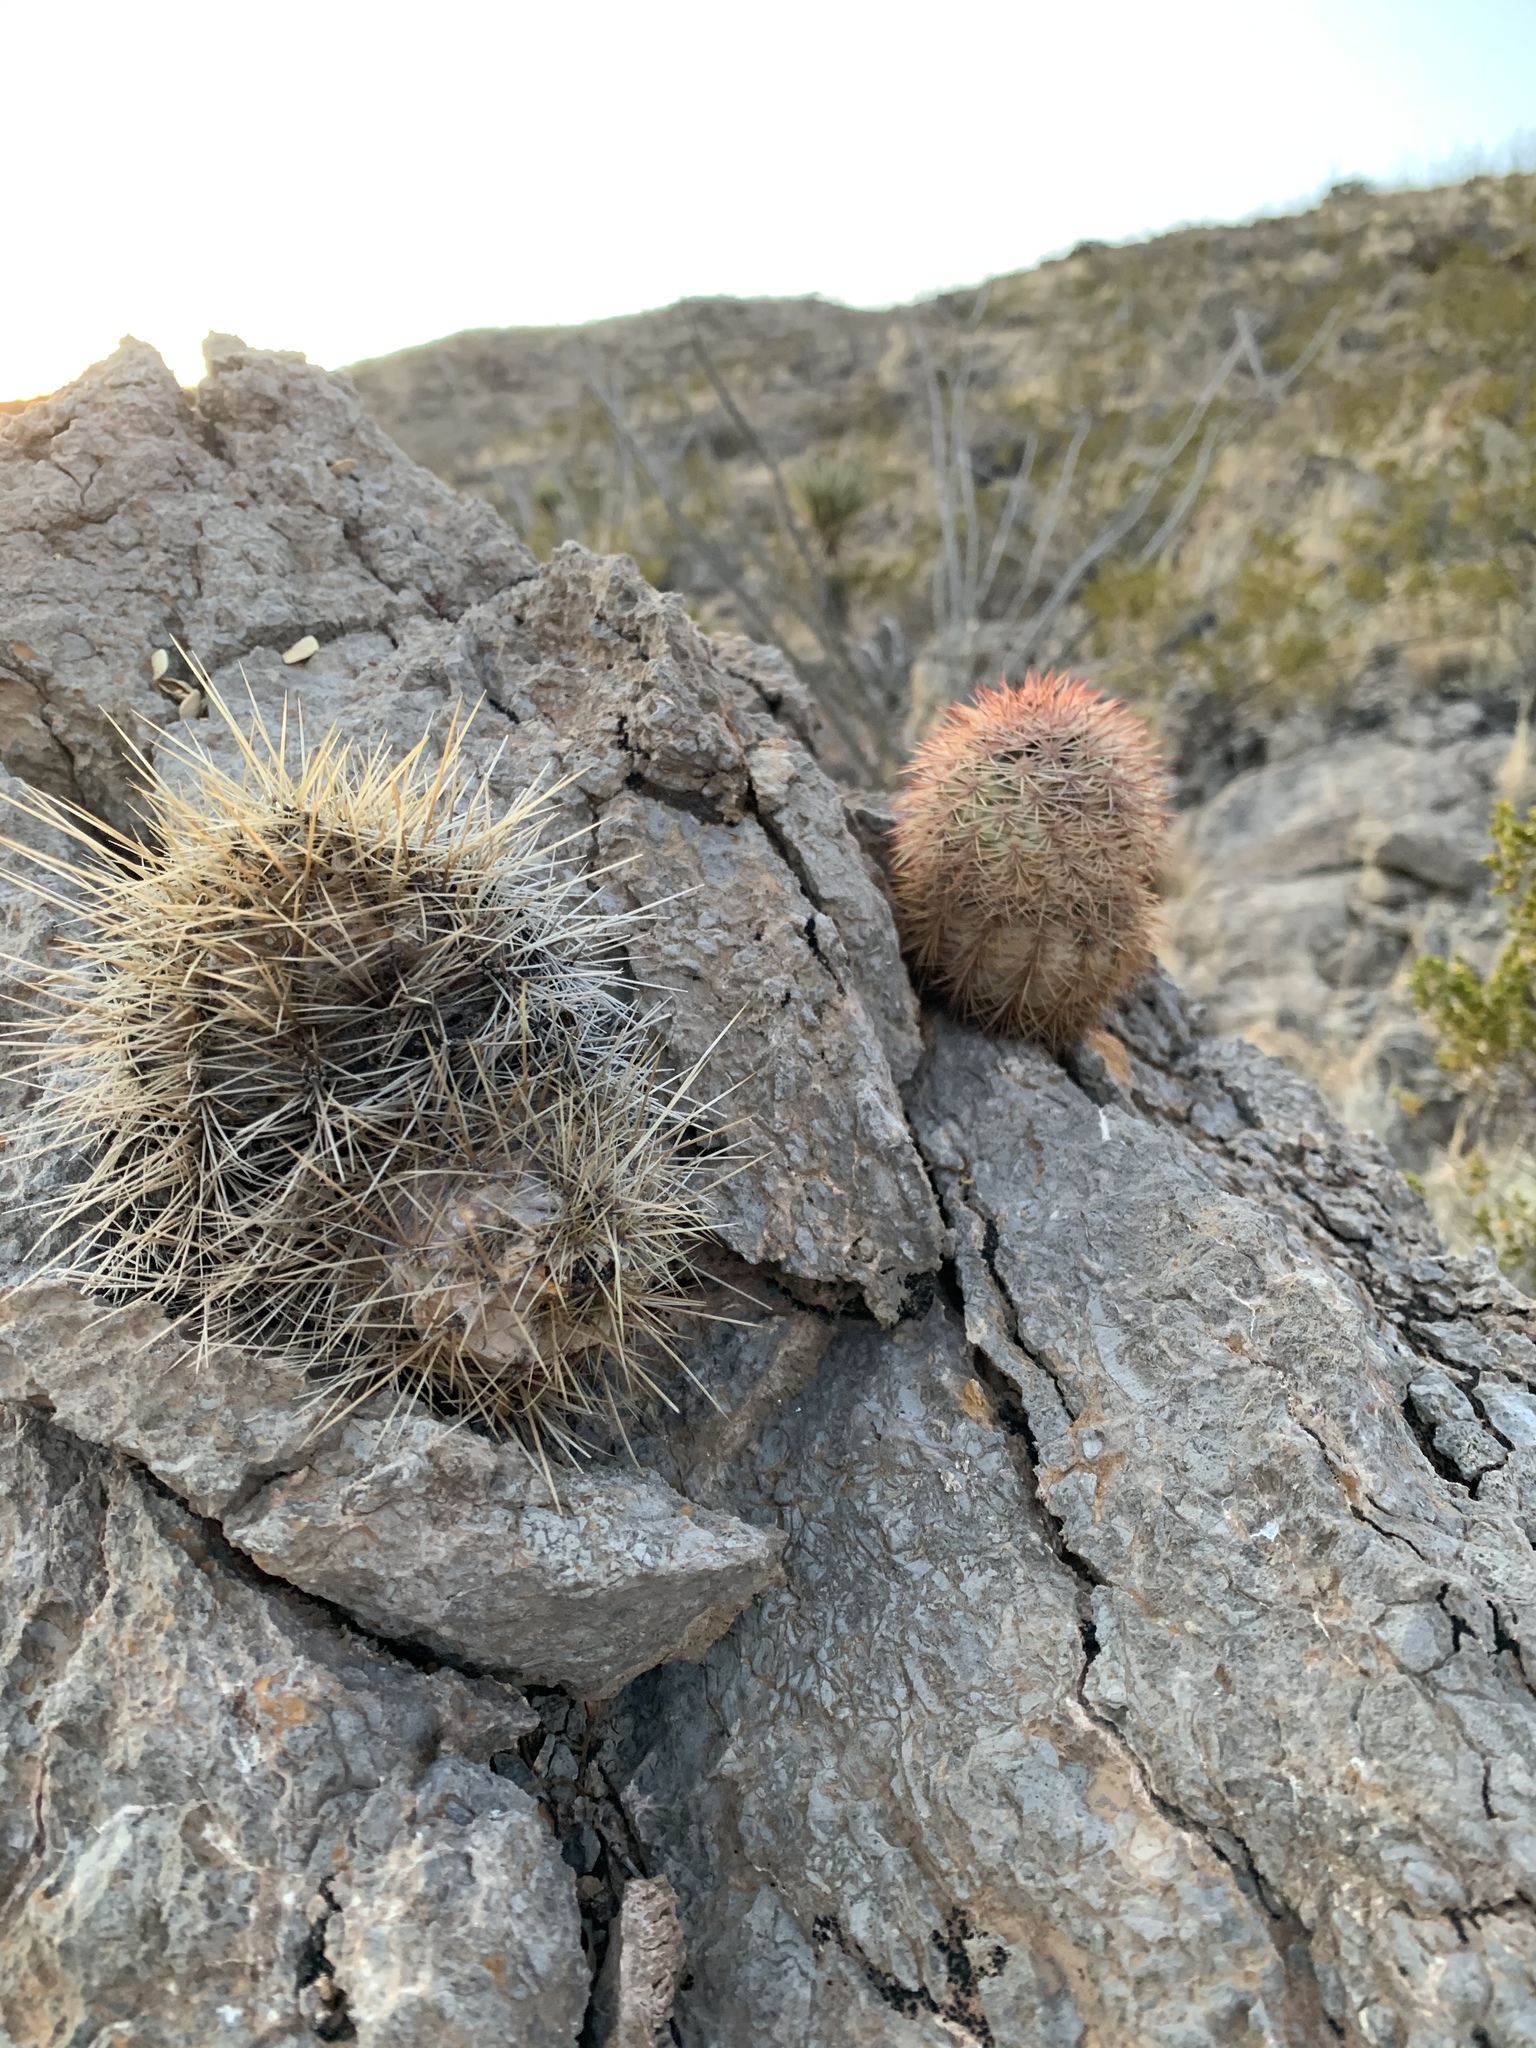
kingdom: Plantae
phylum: Tracheophyta
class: Magnoliopsida
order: Caryophyllales
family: Cactaceae
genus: Echinocereus
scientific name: Echinocereus dasyacanthus
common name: Spiny hedgehog cactus
